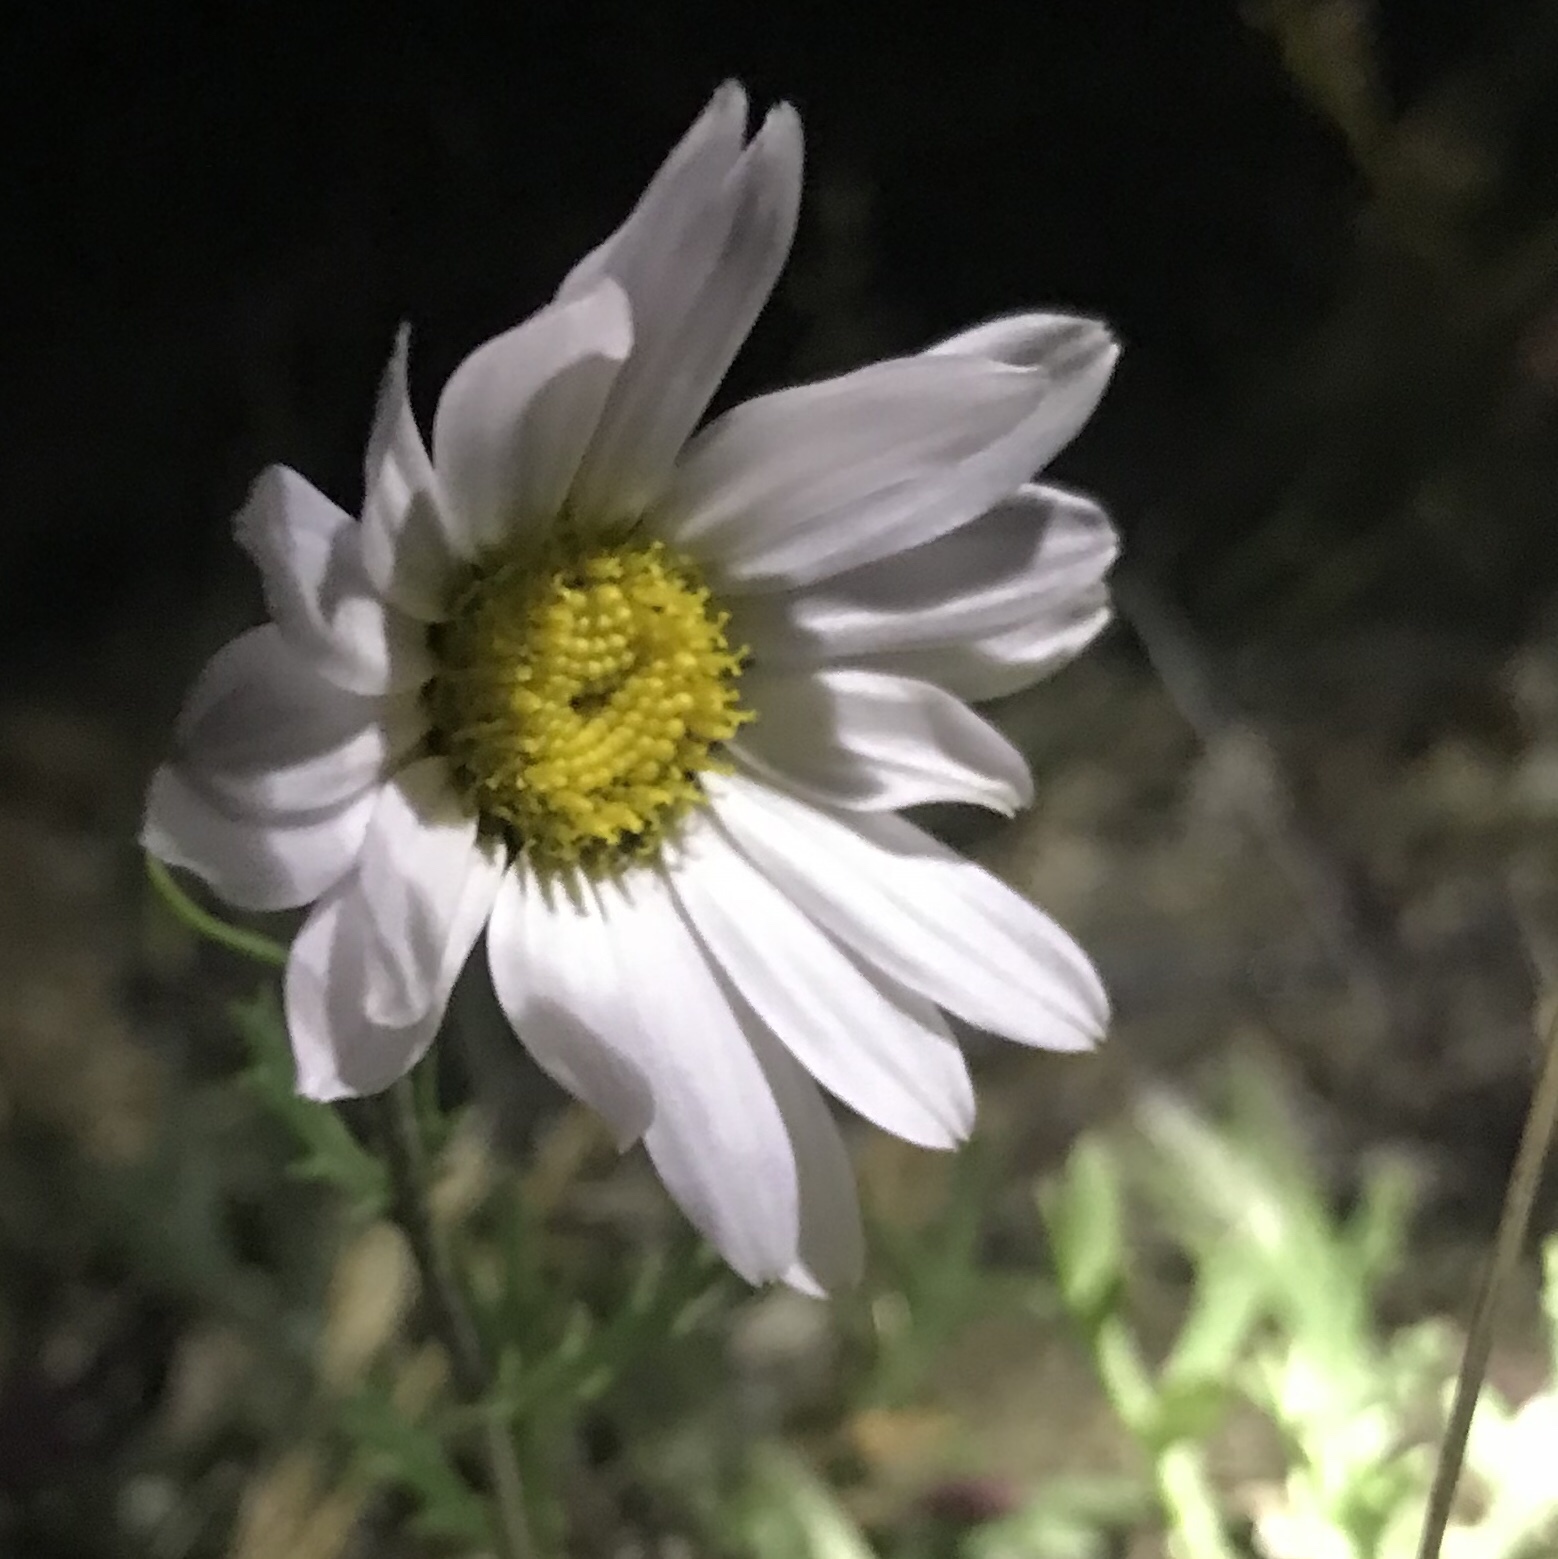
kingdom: Plantae
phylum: Tracheophyta
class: Magnoliopsida
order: Asterales
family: Asteraceae
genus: Chrysanthemum
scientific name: Chrysanthemum zawadzkii
